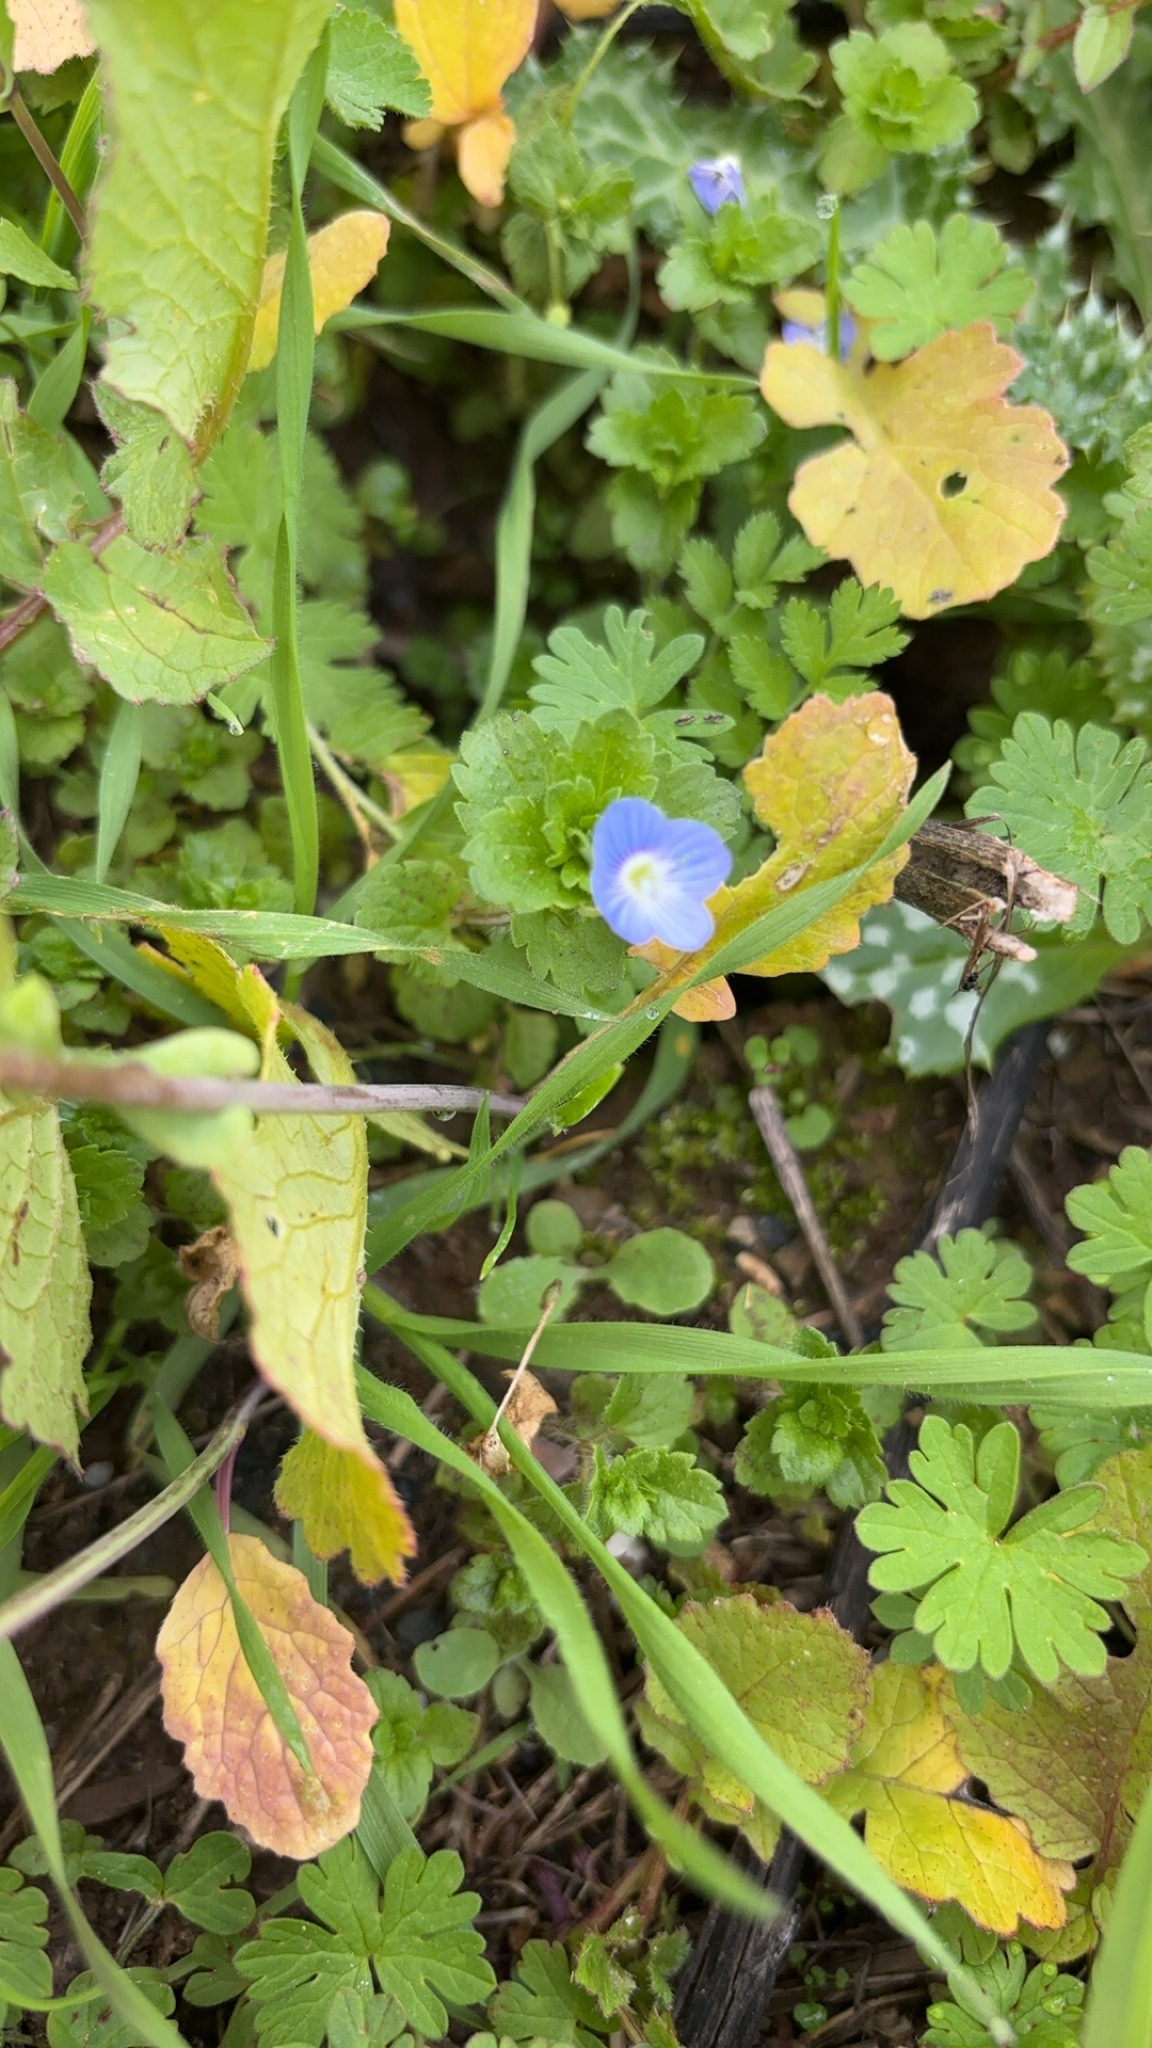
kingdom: Plantae
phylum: Tracheophyta
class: Magnoliopsida
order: Lamiales
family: Plantaginaceae
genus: Veronica
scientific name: Veronica persica
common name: Common field-speedwell
